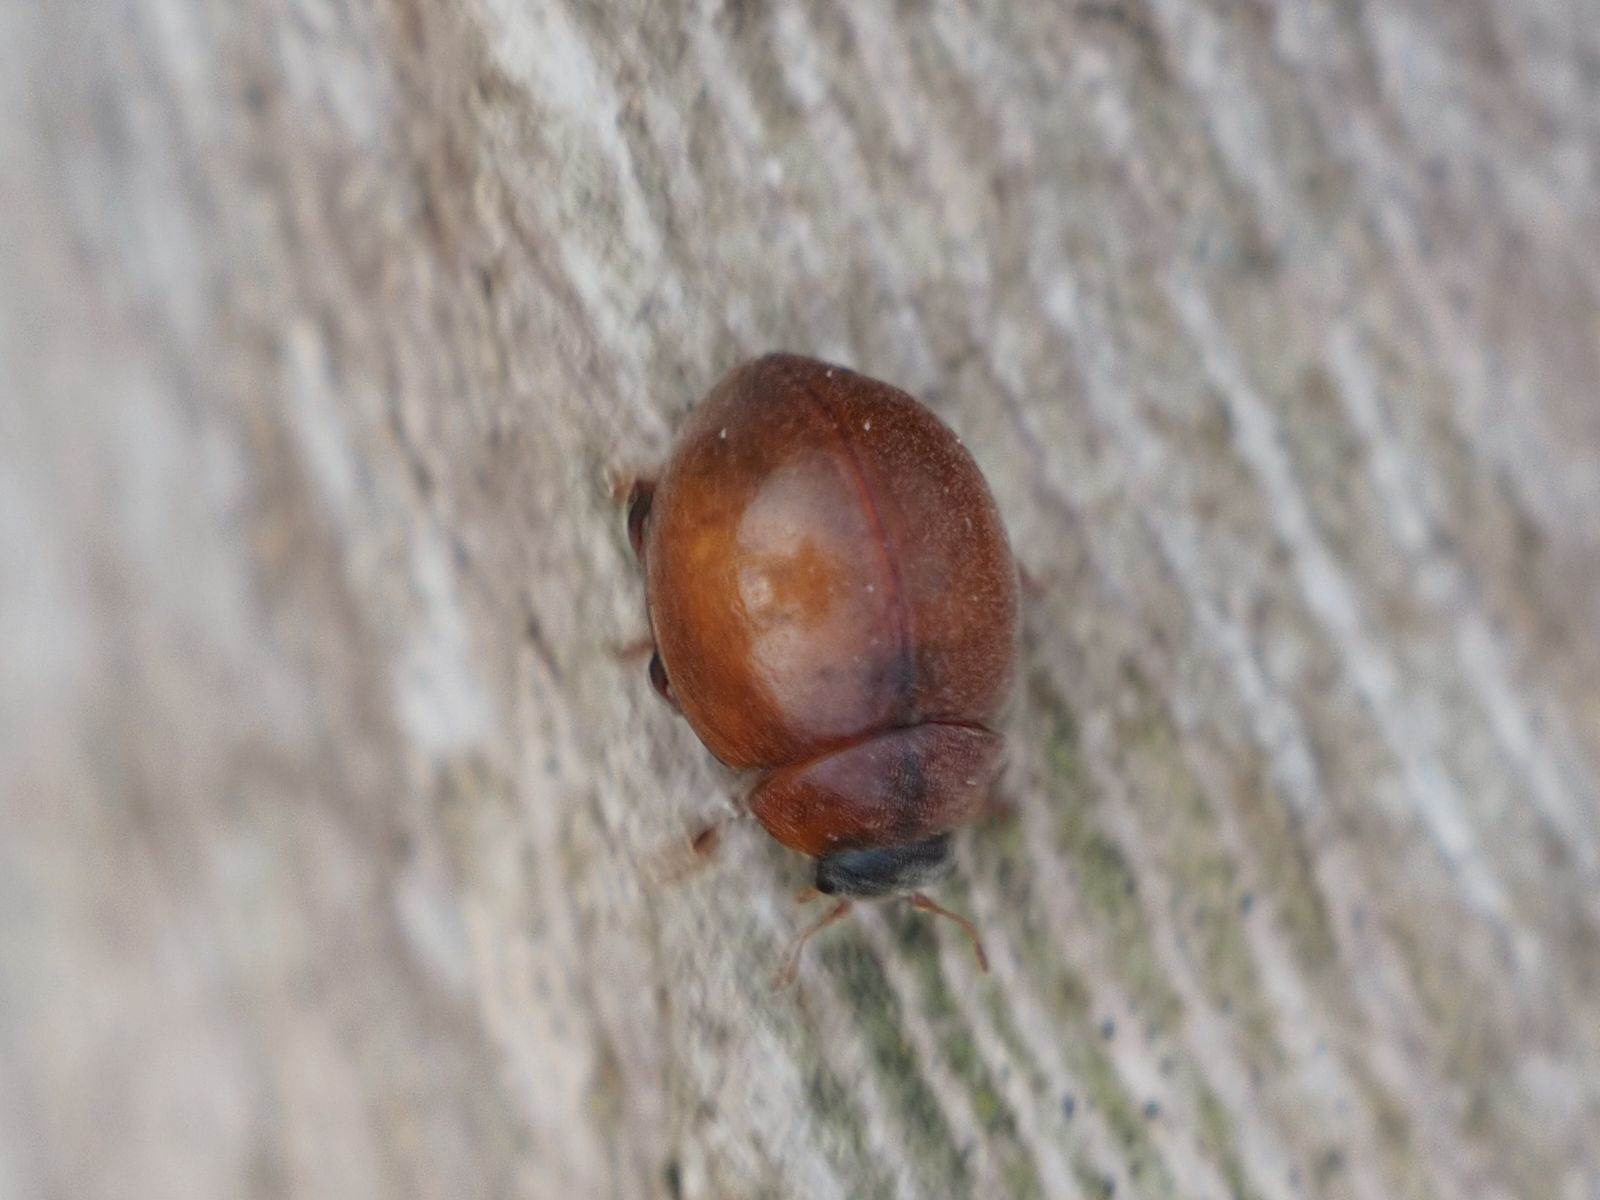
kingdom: Animalia
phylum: Arthropoda
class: Insecta
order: Coleoptera
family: Coccinellidae
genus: Cynegetis
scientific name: Cynegetis impunctata
